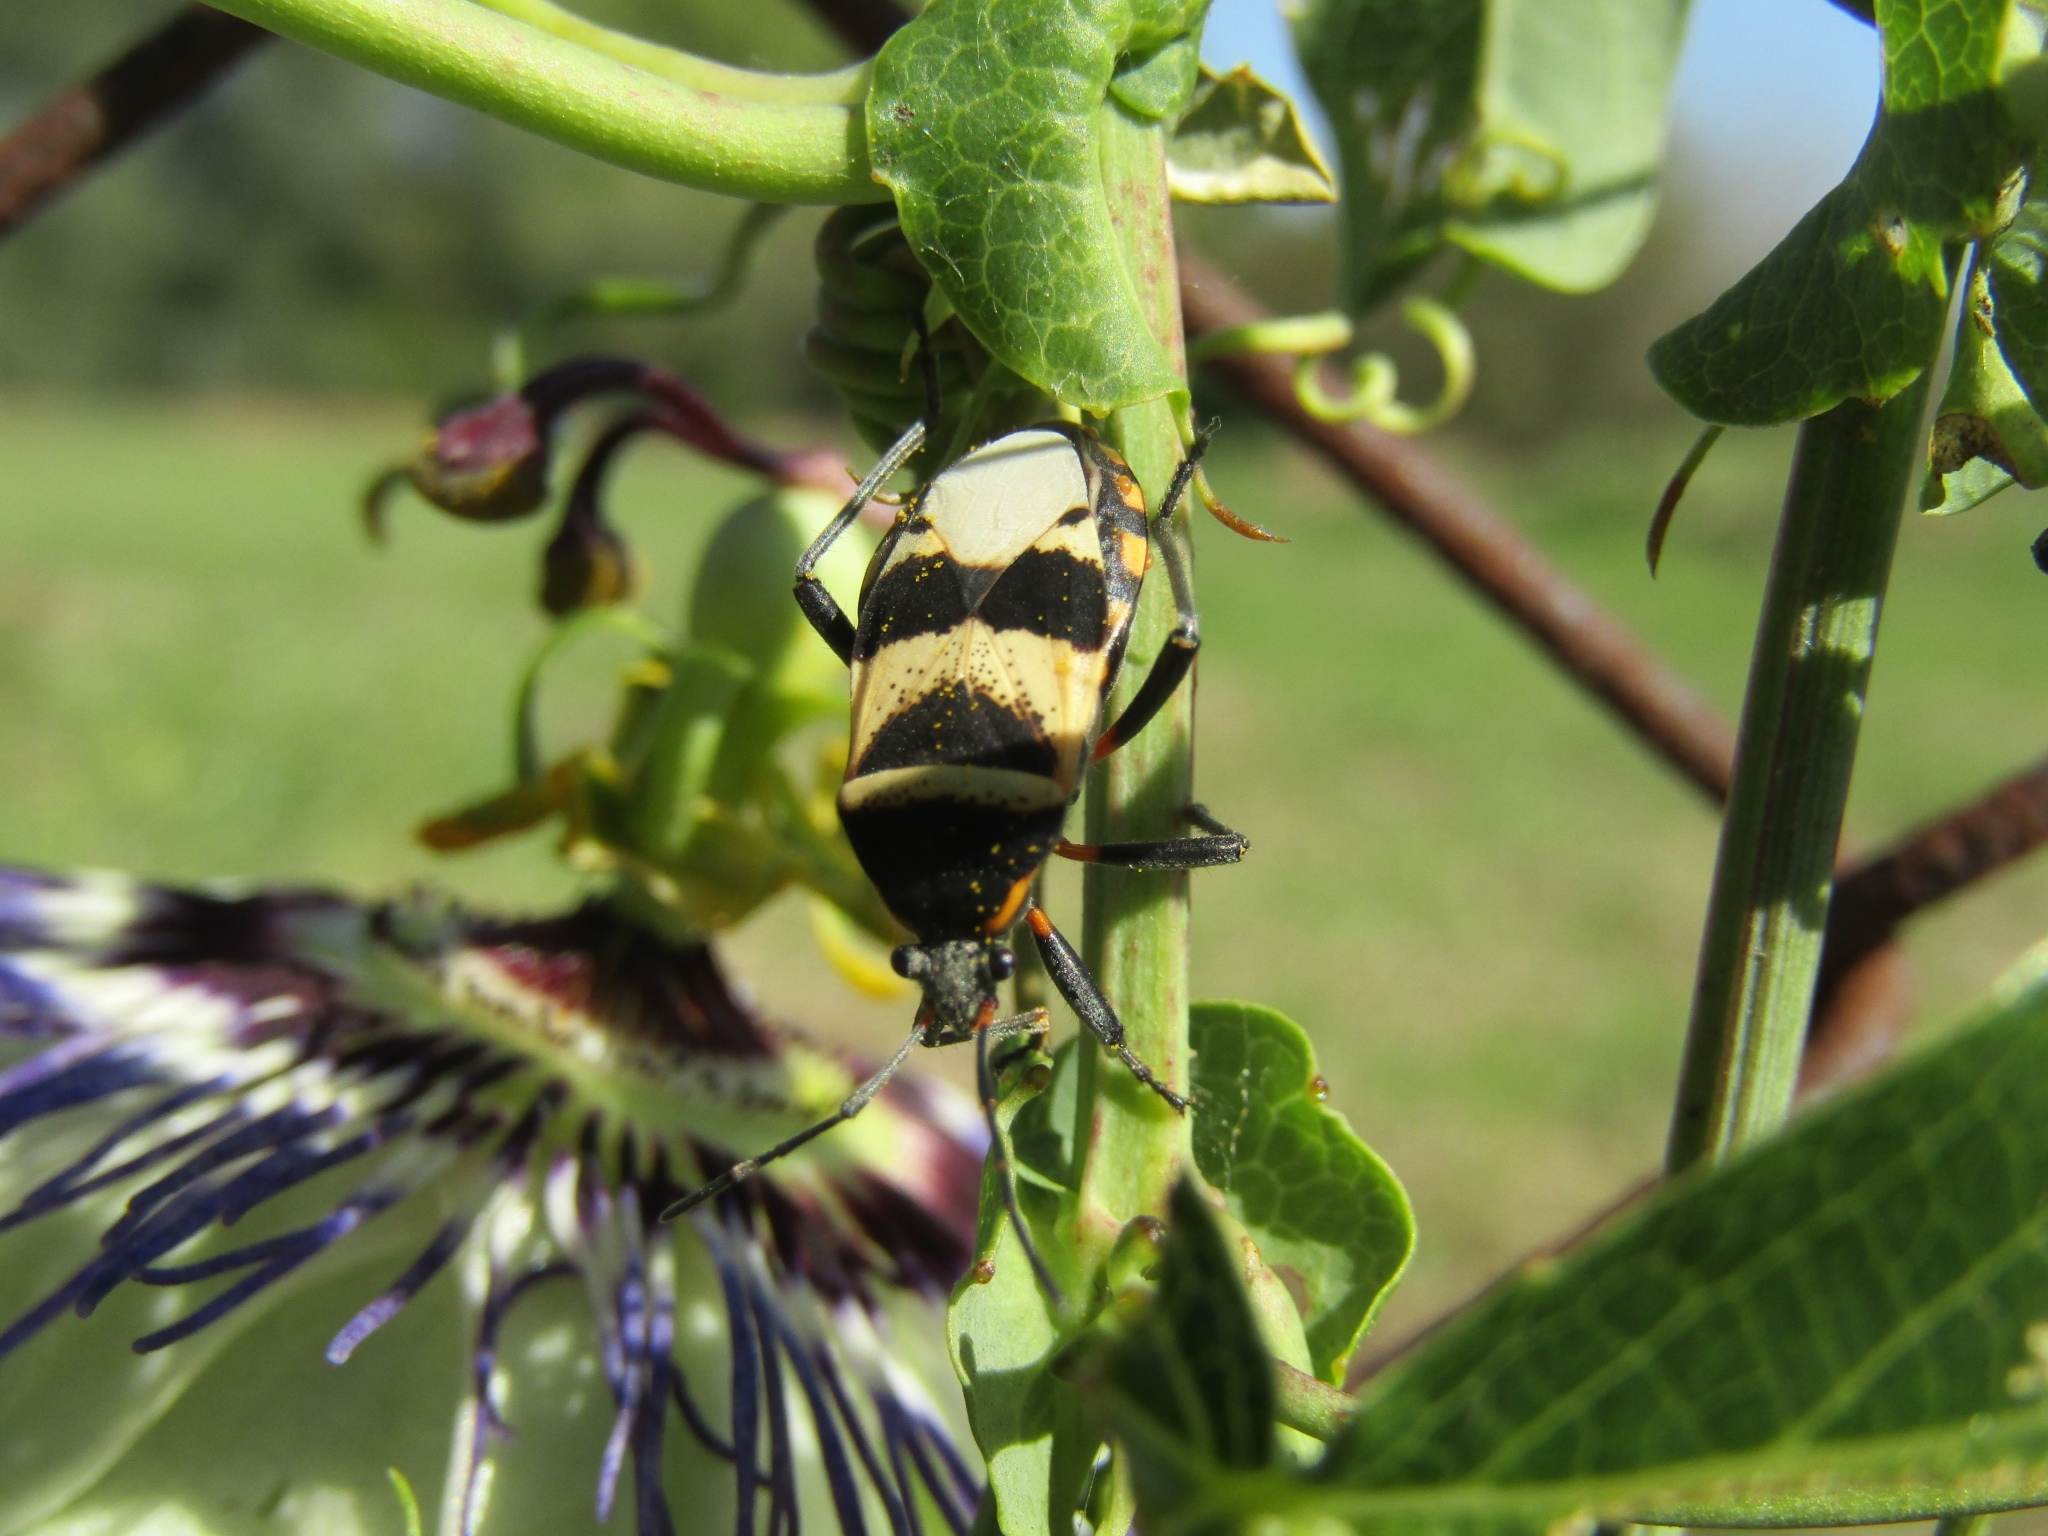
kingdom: Animalia
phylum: Arthropoda
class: Insecta
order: Hemiptera
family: Largidae
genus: Largus
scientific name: Largus fasciatus
